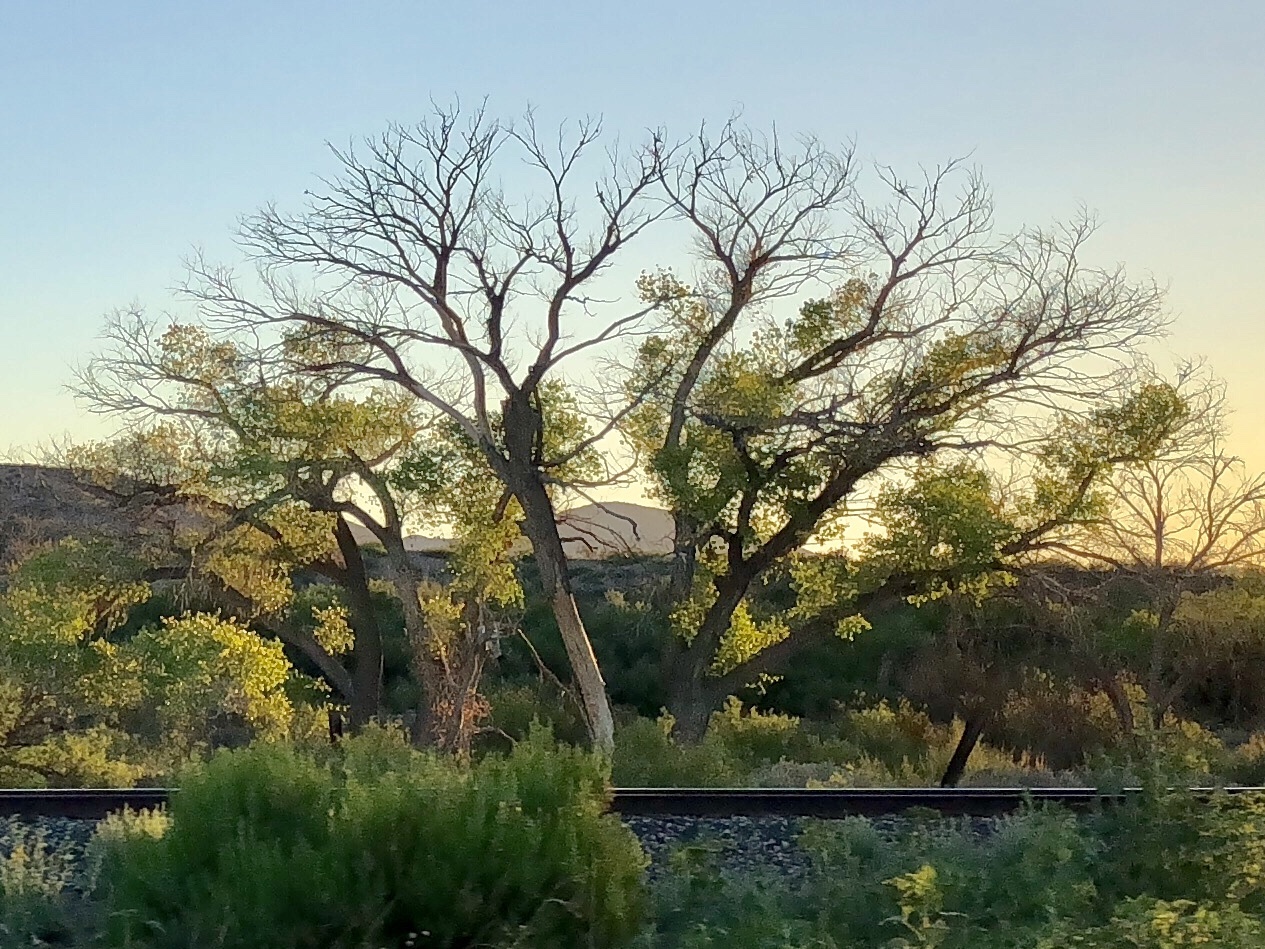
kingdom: Plantae
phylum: Tracheophyta
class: Magnoliopsida
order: Malpighiales
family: Salicaceae
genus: Populus
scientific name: Populus fremontii
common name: Fremont's cottonwood
